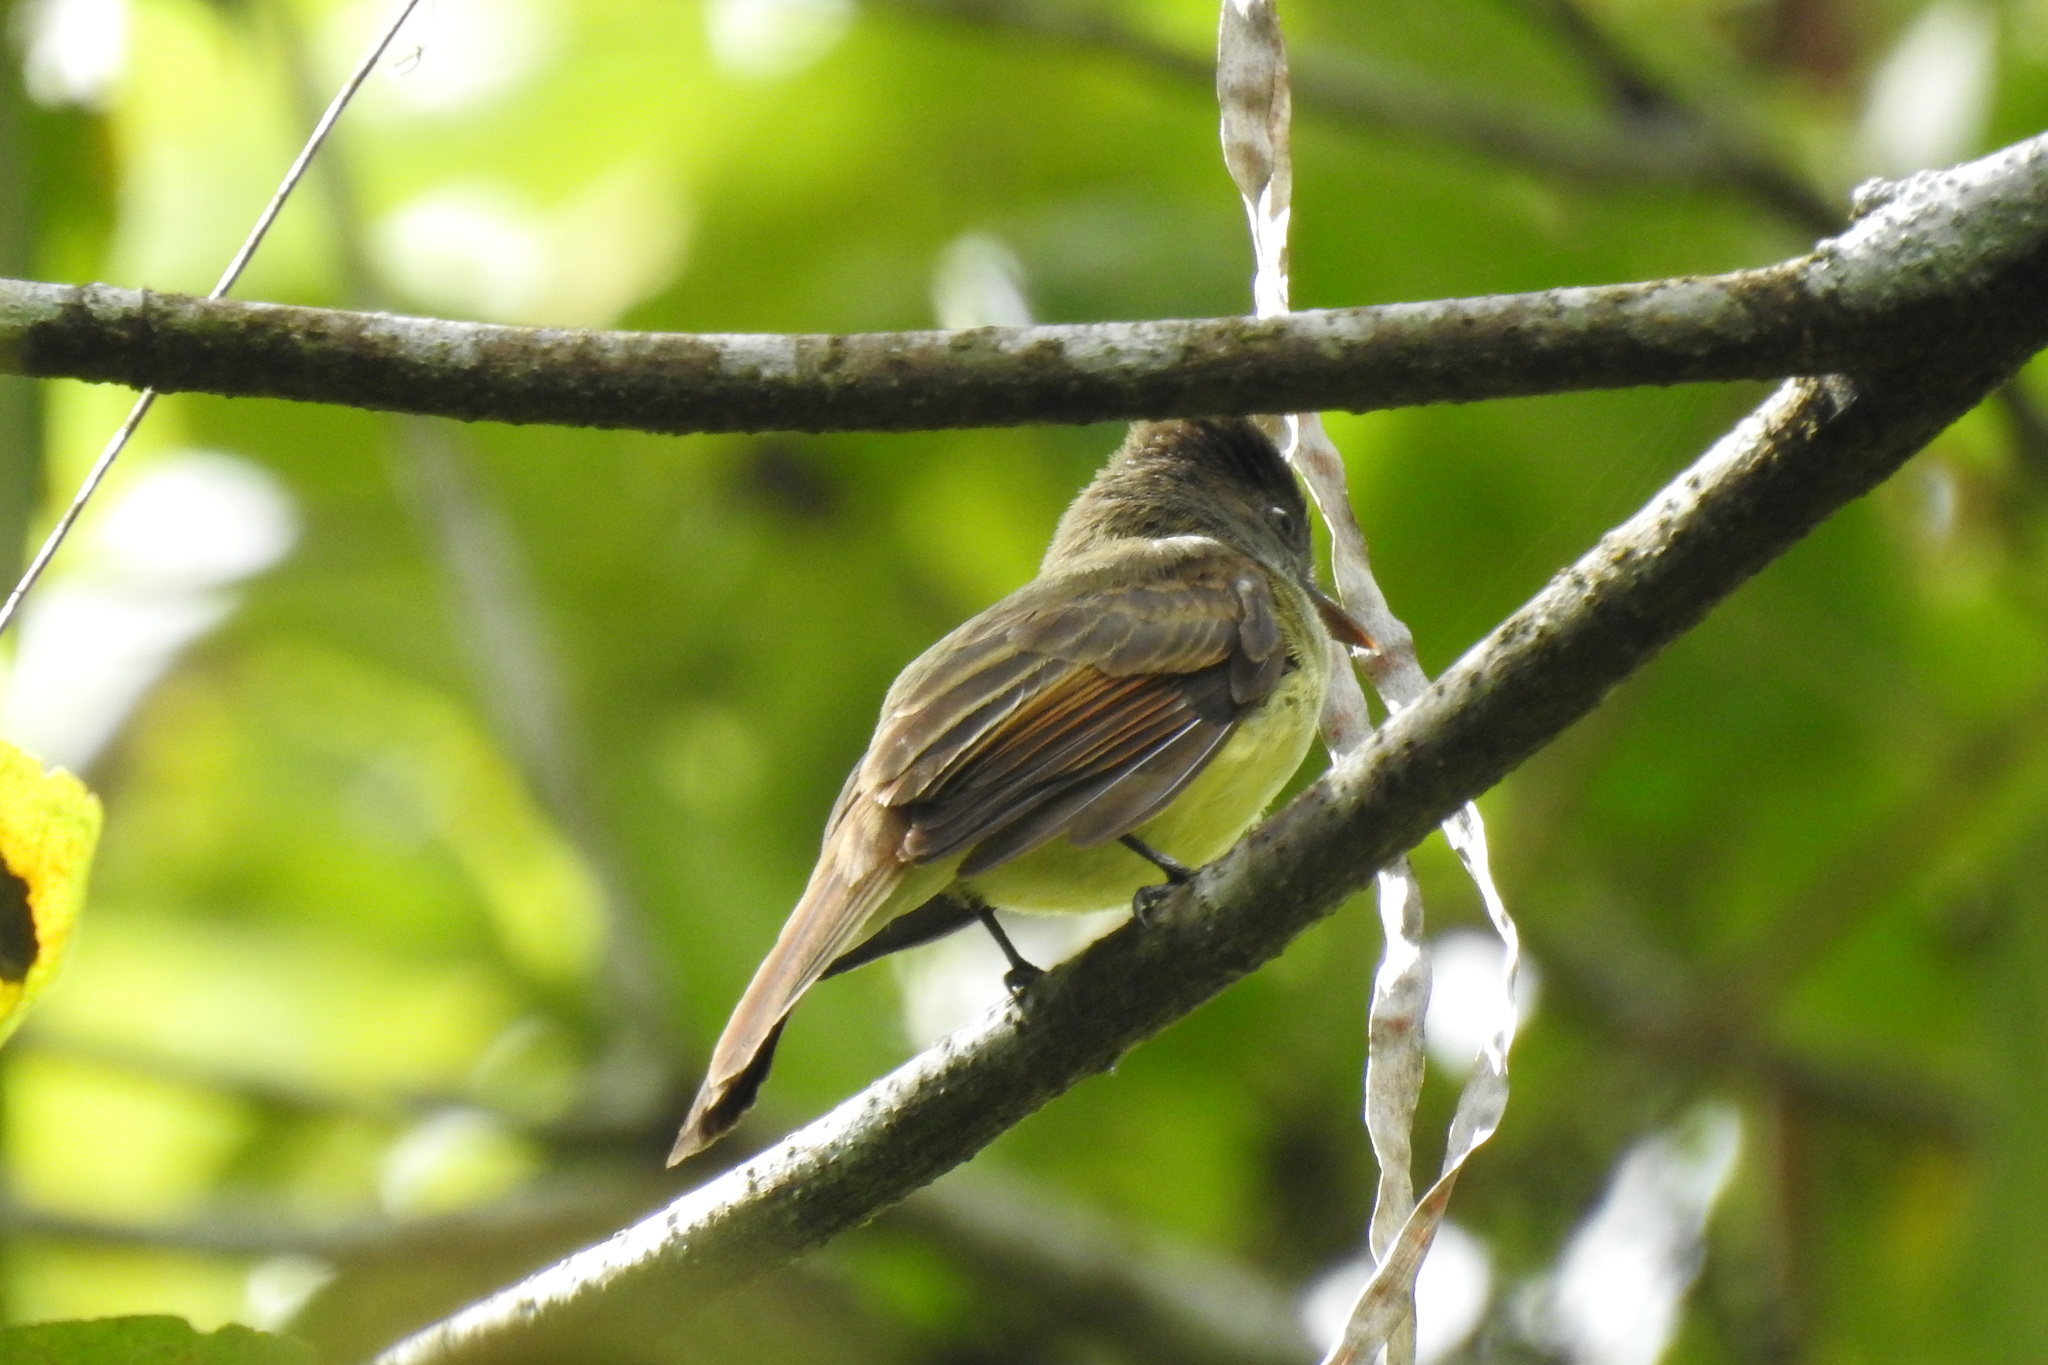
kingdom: Animalia
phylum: Chordata
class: Aves
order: Passeriformes
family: Tyrannidae
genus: Myiarchus
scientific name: Myiarchus tuberculifer
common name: Dusky-capped flycatcher
